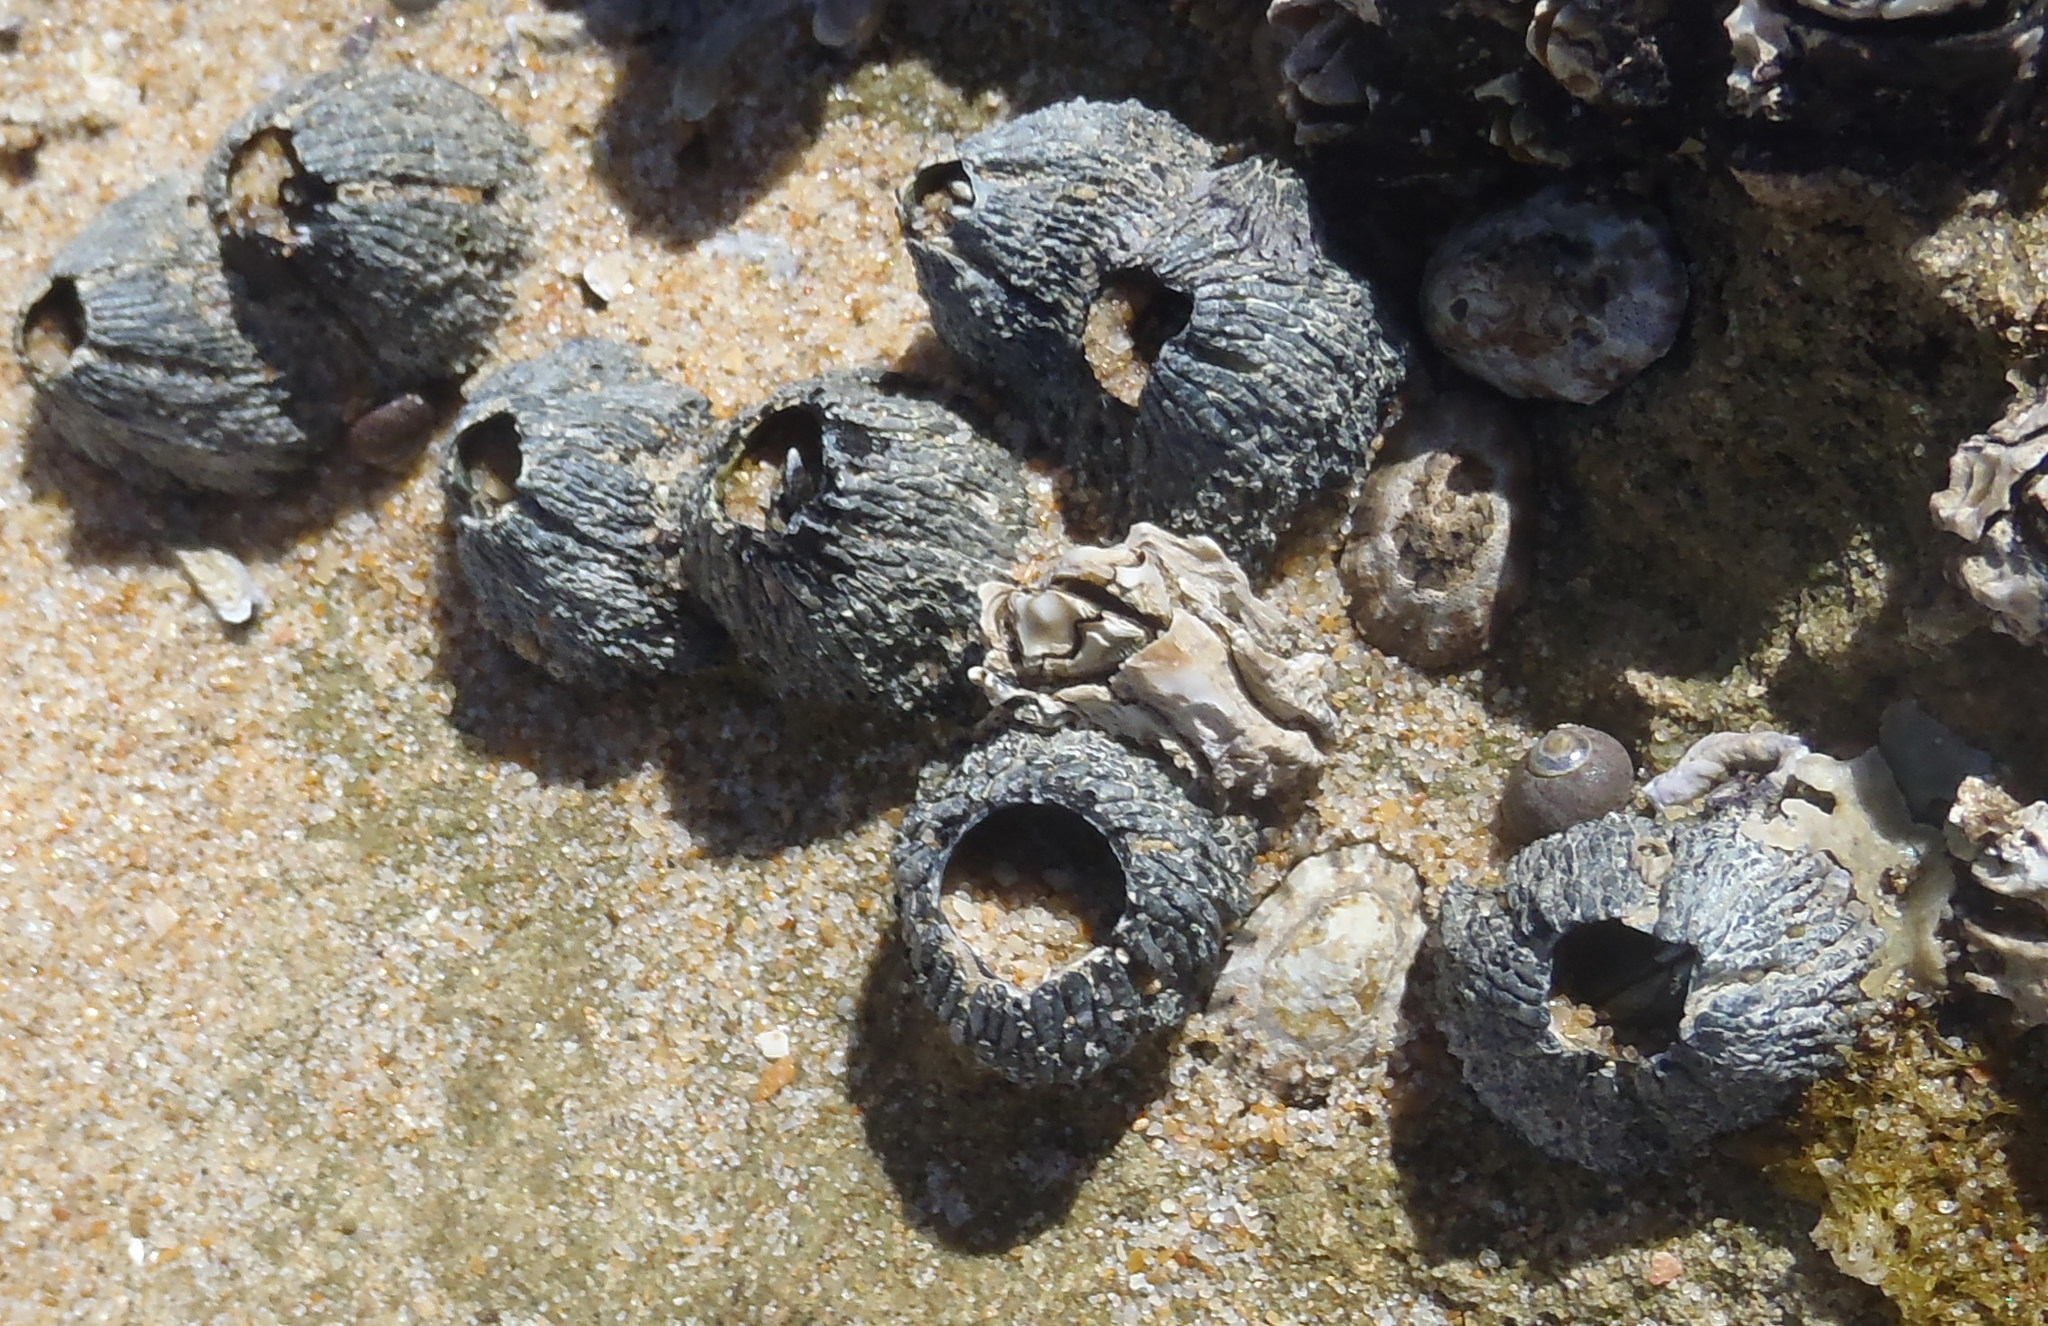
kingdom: Animalia
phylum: Arthropoda
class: Maxillopoda
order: Sessilia
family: Tetraclitidae
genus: Tetraclita
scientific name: Tetraclita serrata
